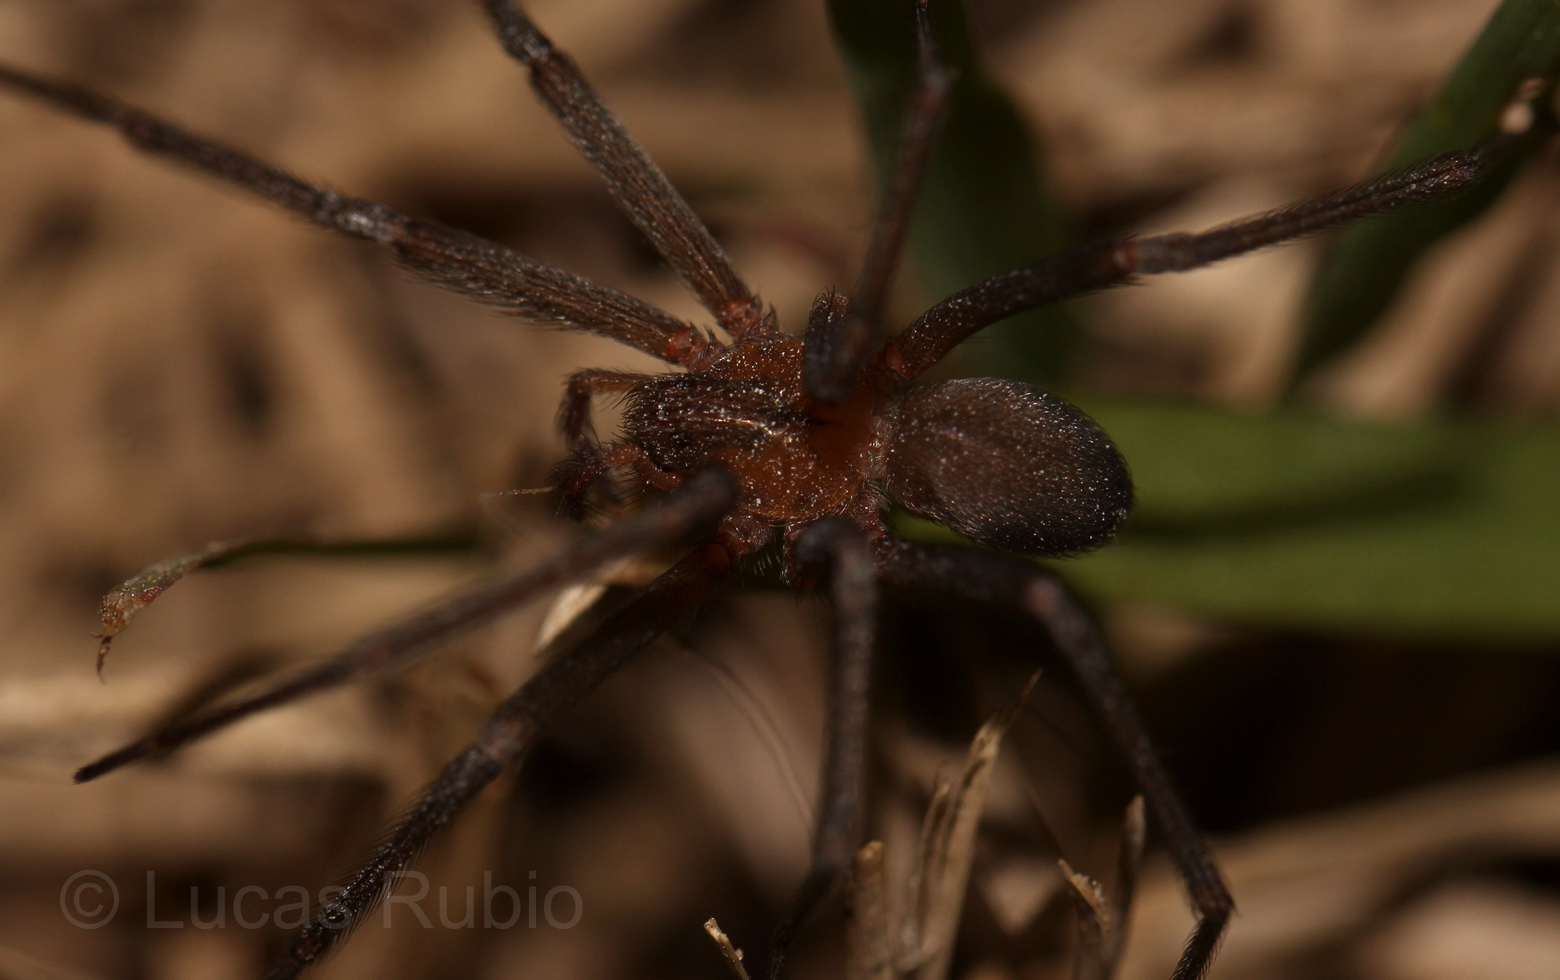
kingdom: Animalia
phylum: Arthropoda
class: Arachnida
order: Araneae
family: Sicariidae
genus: Loxosceles
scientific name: Loxosceles laeta
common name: Chilean recluse spider
